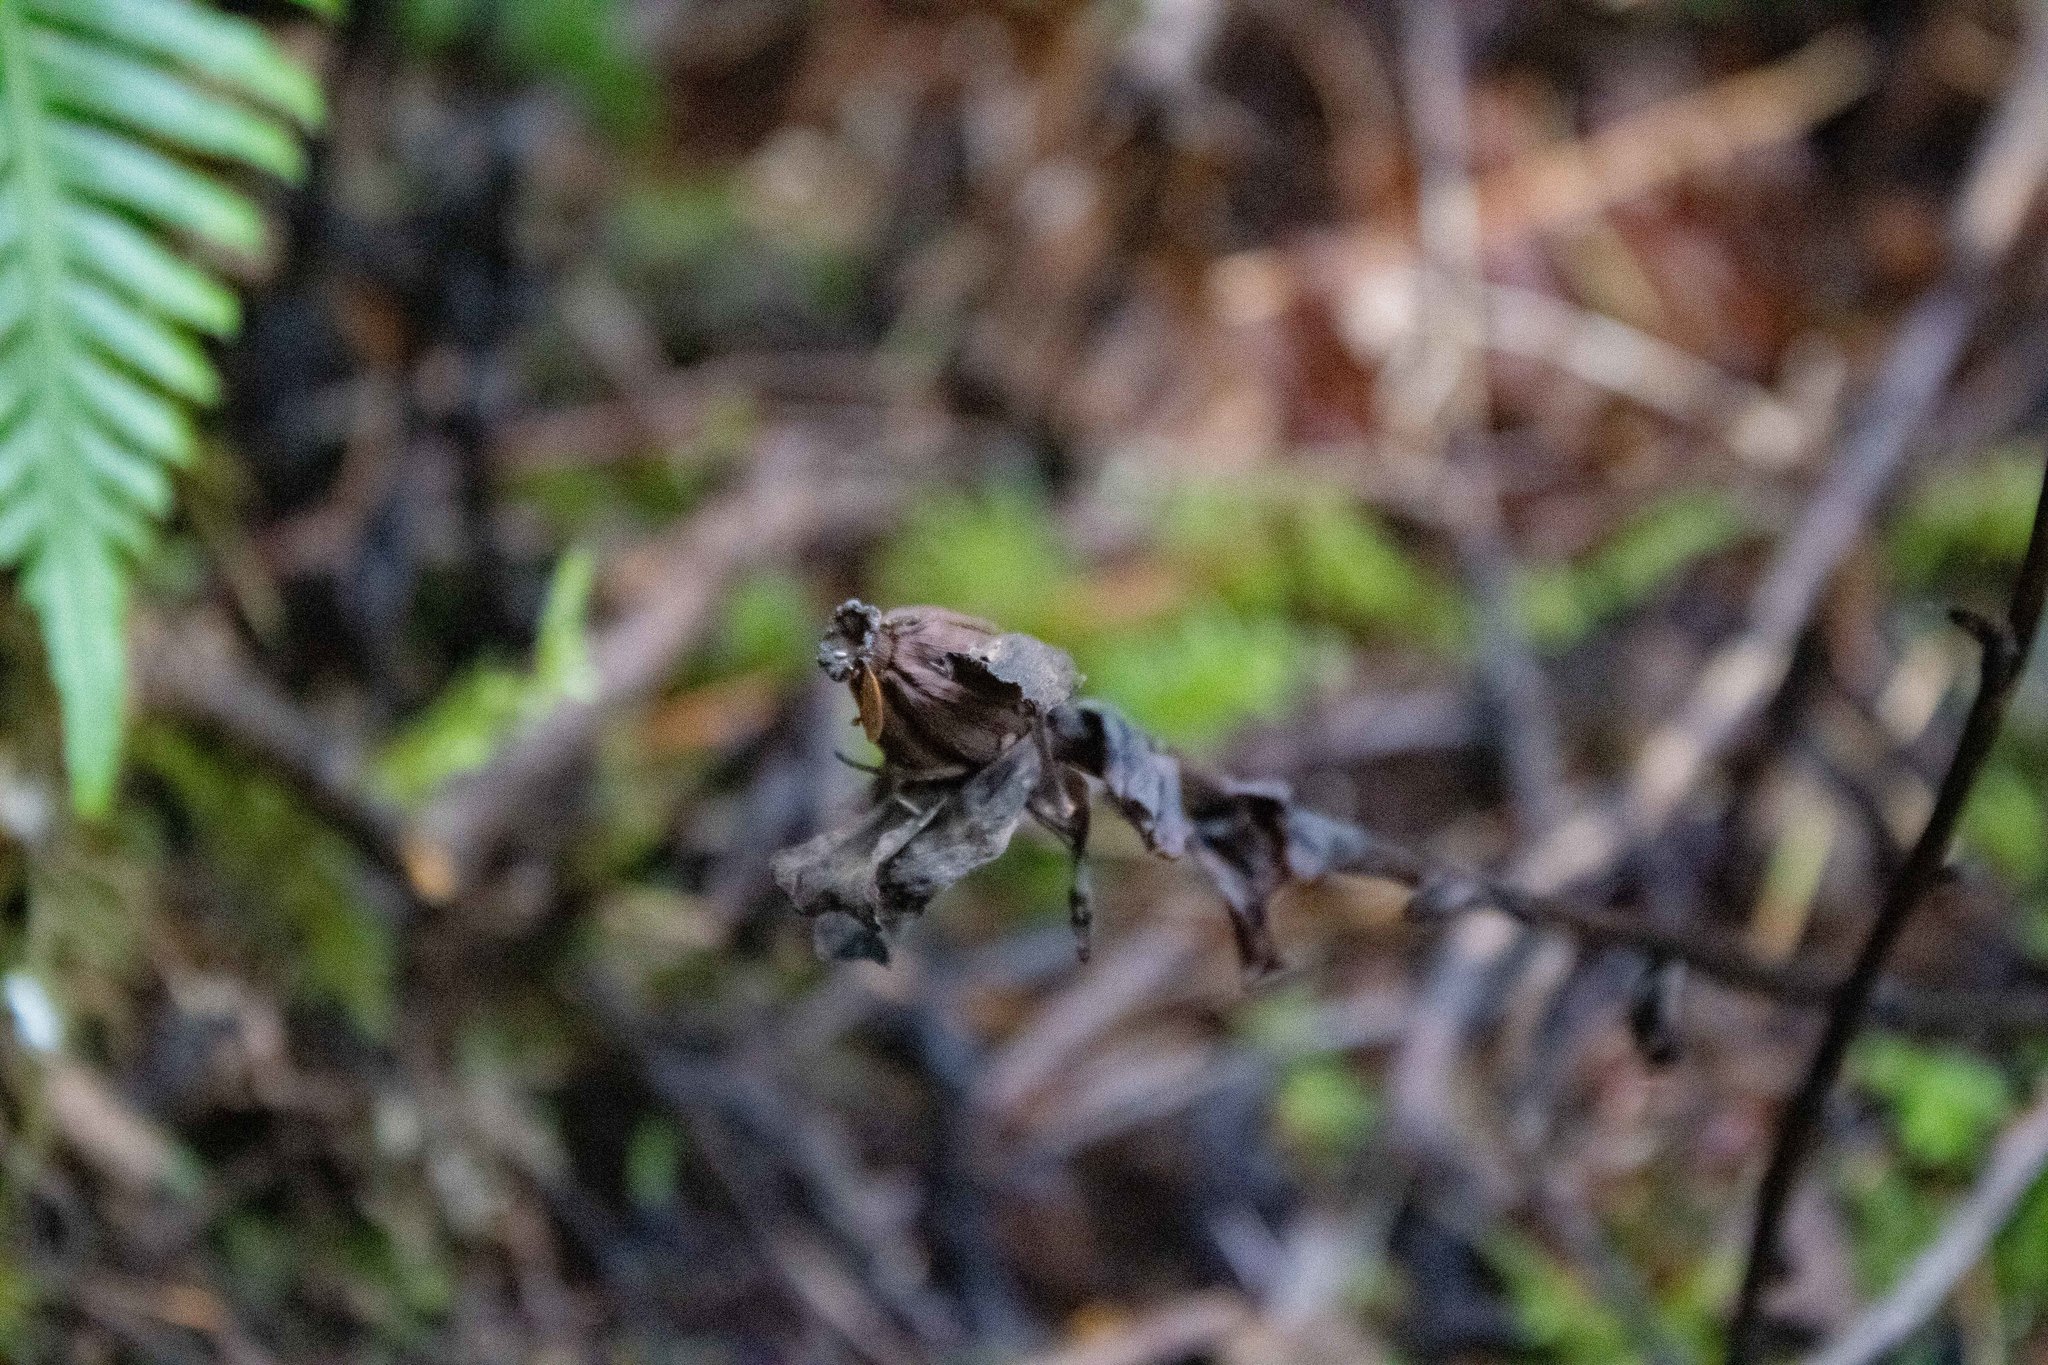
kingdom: Plantae
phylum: Tracheophyta
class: Magnoliopsida
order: Ericales
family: Ericaceae
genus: Monotropa
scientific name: Monotropa uniflora
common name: Convulsion root
